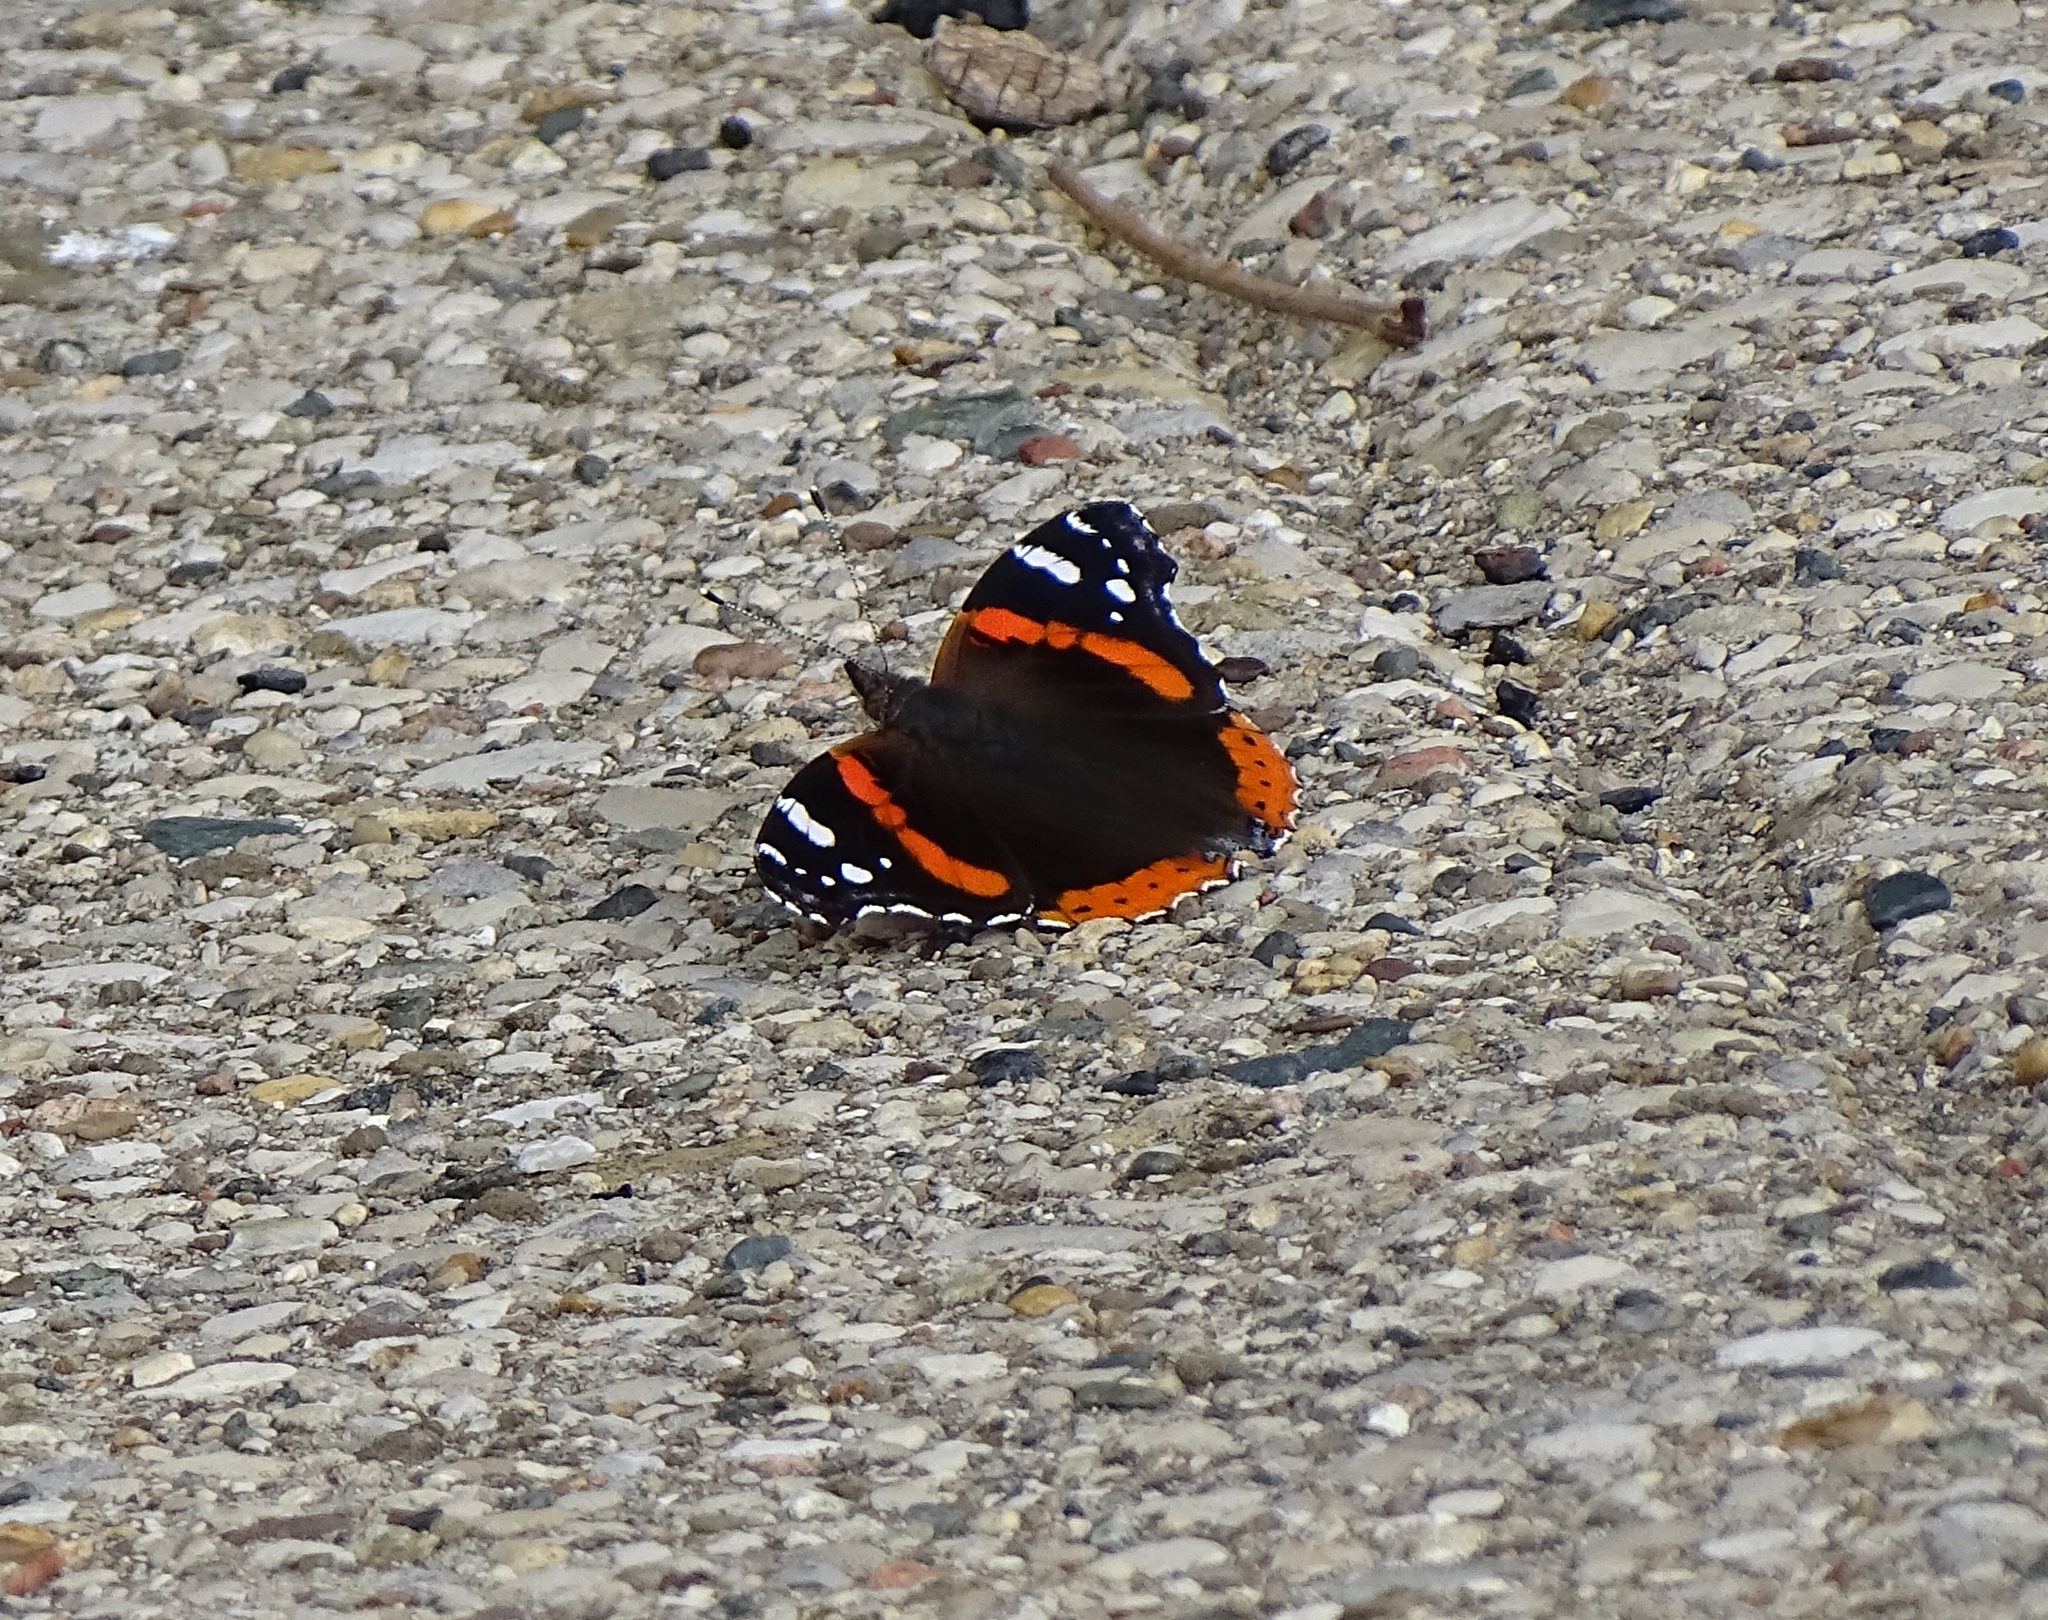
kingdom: Animalia
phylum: Arthropoda
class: Insecta
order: Lepidoptera
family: Nymphalidae
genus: Vanessa
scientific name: Vanessa atalanta
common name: Red admiral
